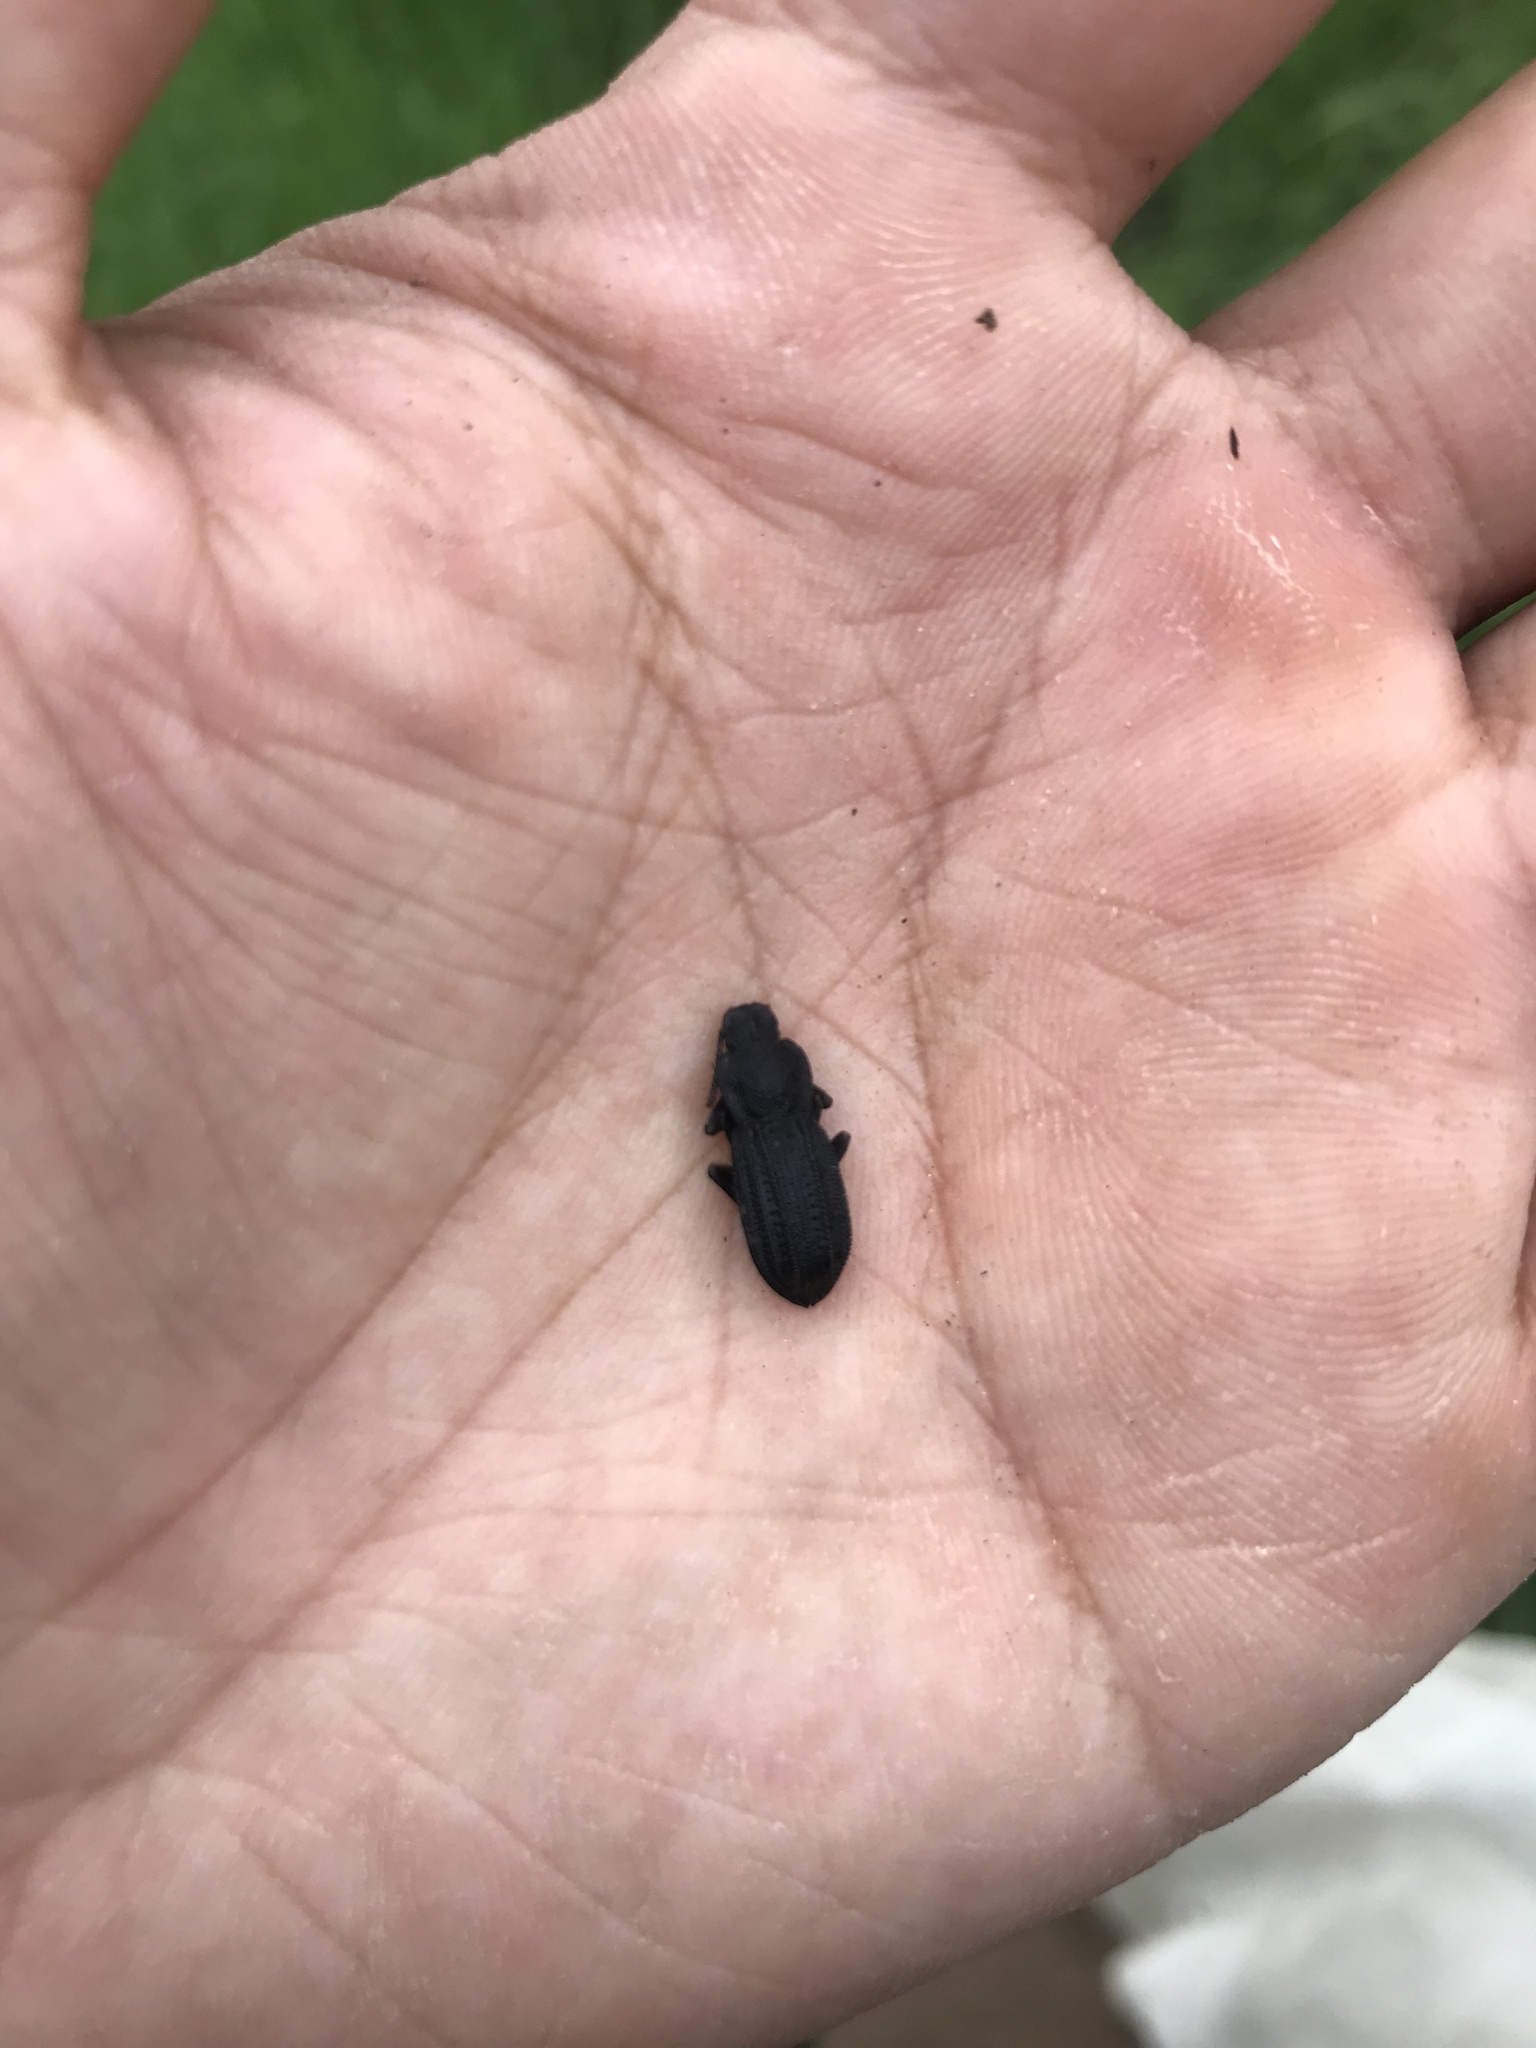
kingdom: Animalia
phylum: Arthropoda
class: Insecta
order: Coleoptera
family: Tenebrionidae
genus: Nyctoporis
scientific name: Nyctoporis carinata
